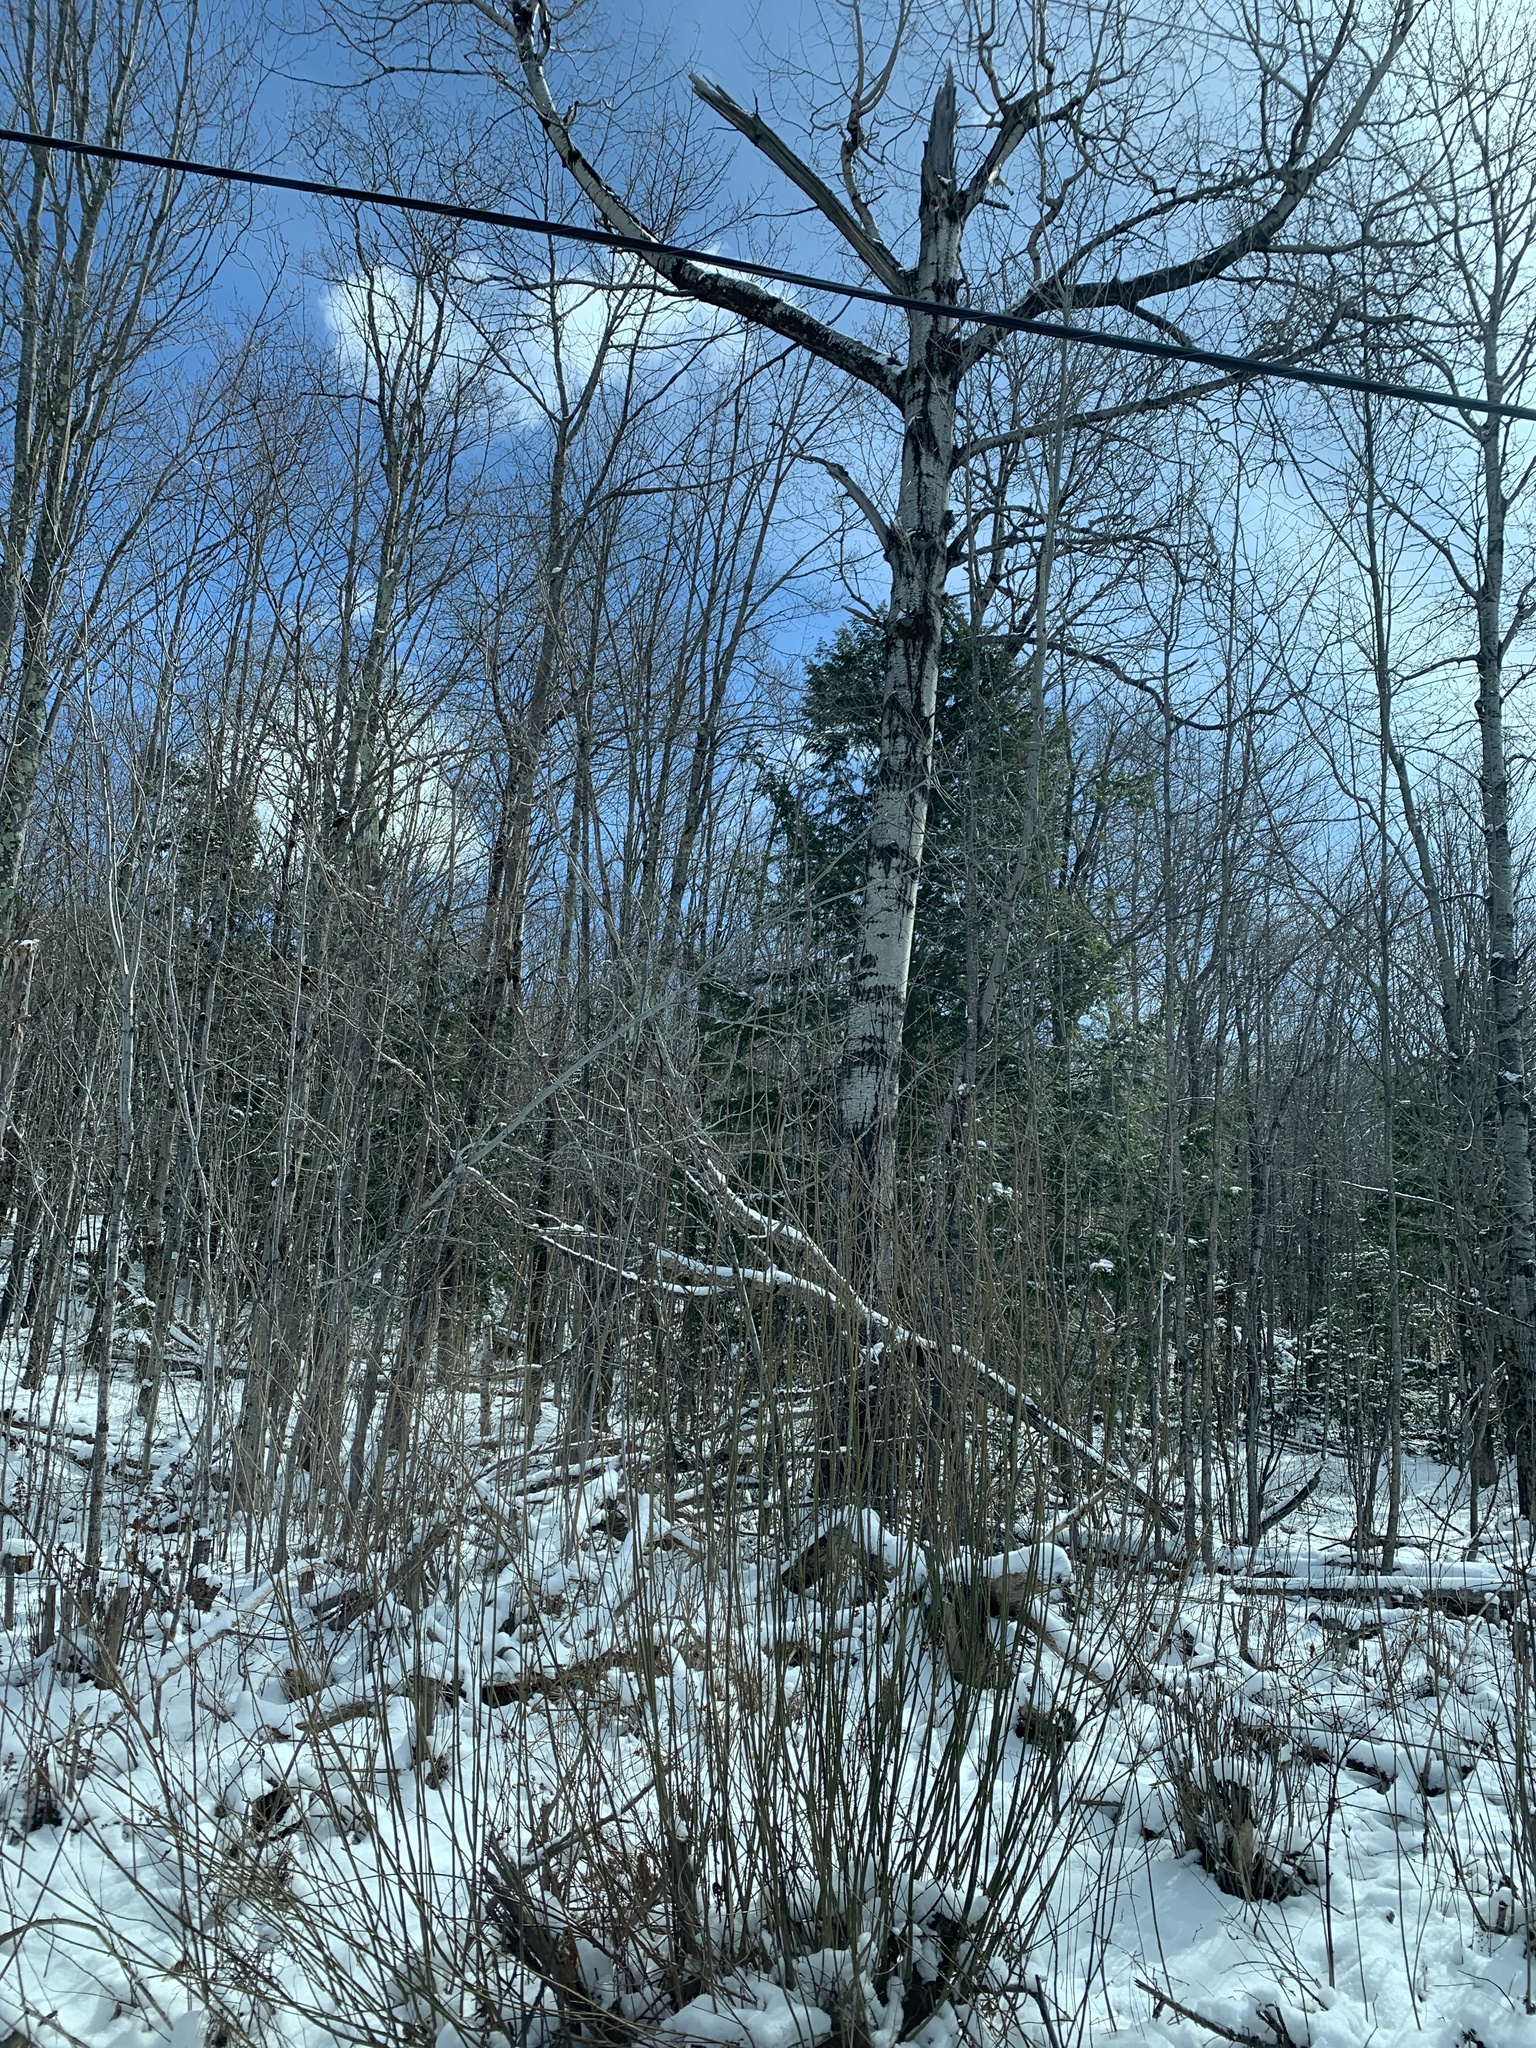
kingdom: Plantae
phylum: Tracheophyta
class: Magnoliopsida
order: Malpighiales
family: Salicaceae
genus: Populus
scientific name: Populus tremuloides
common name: Quaking aspen
